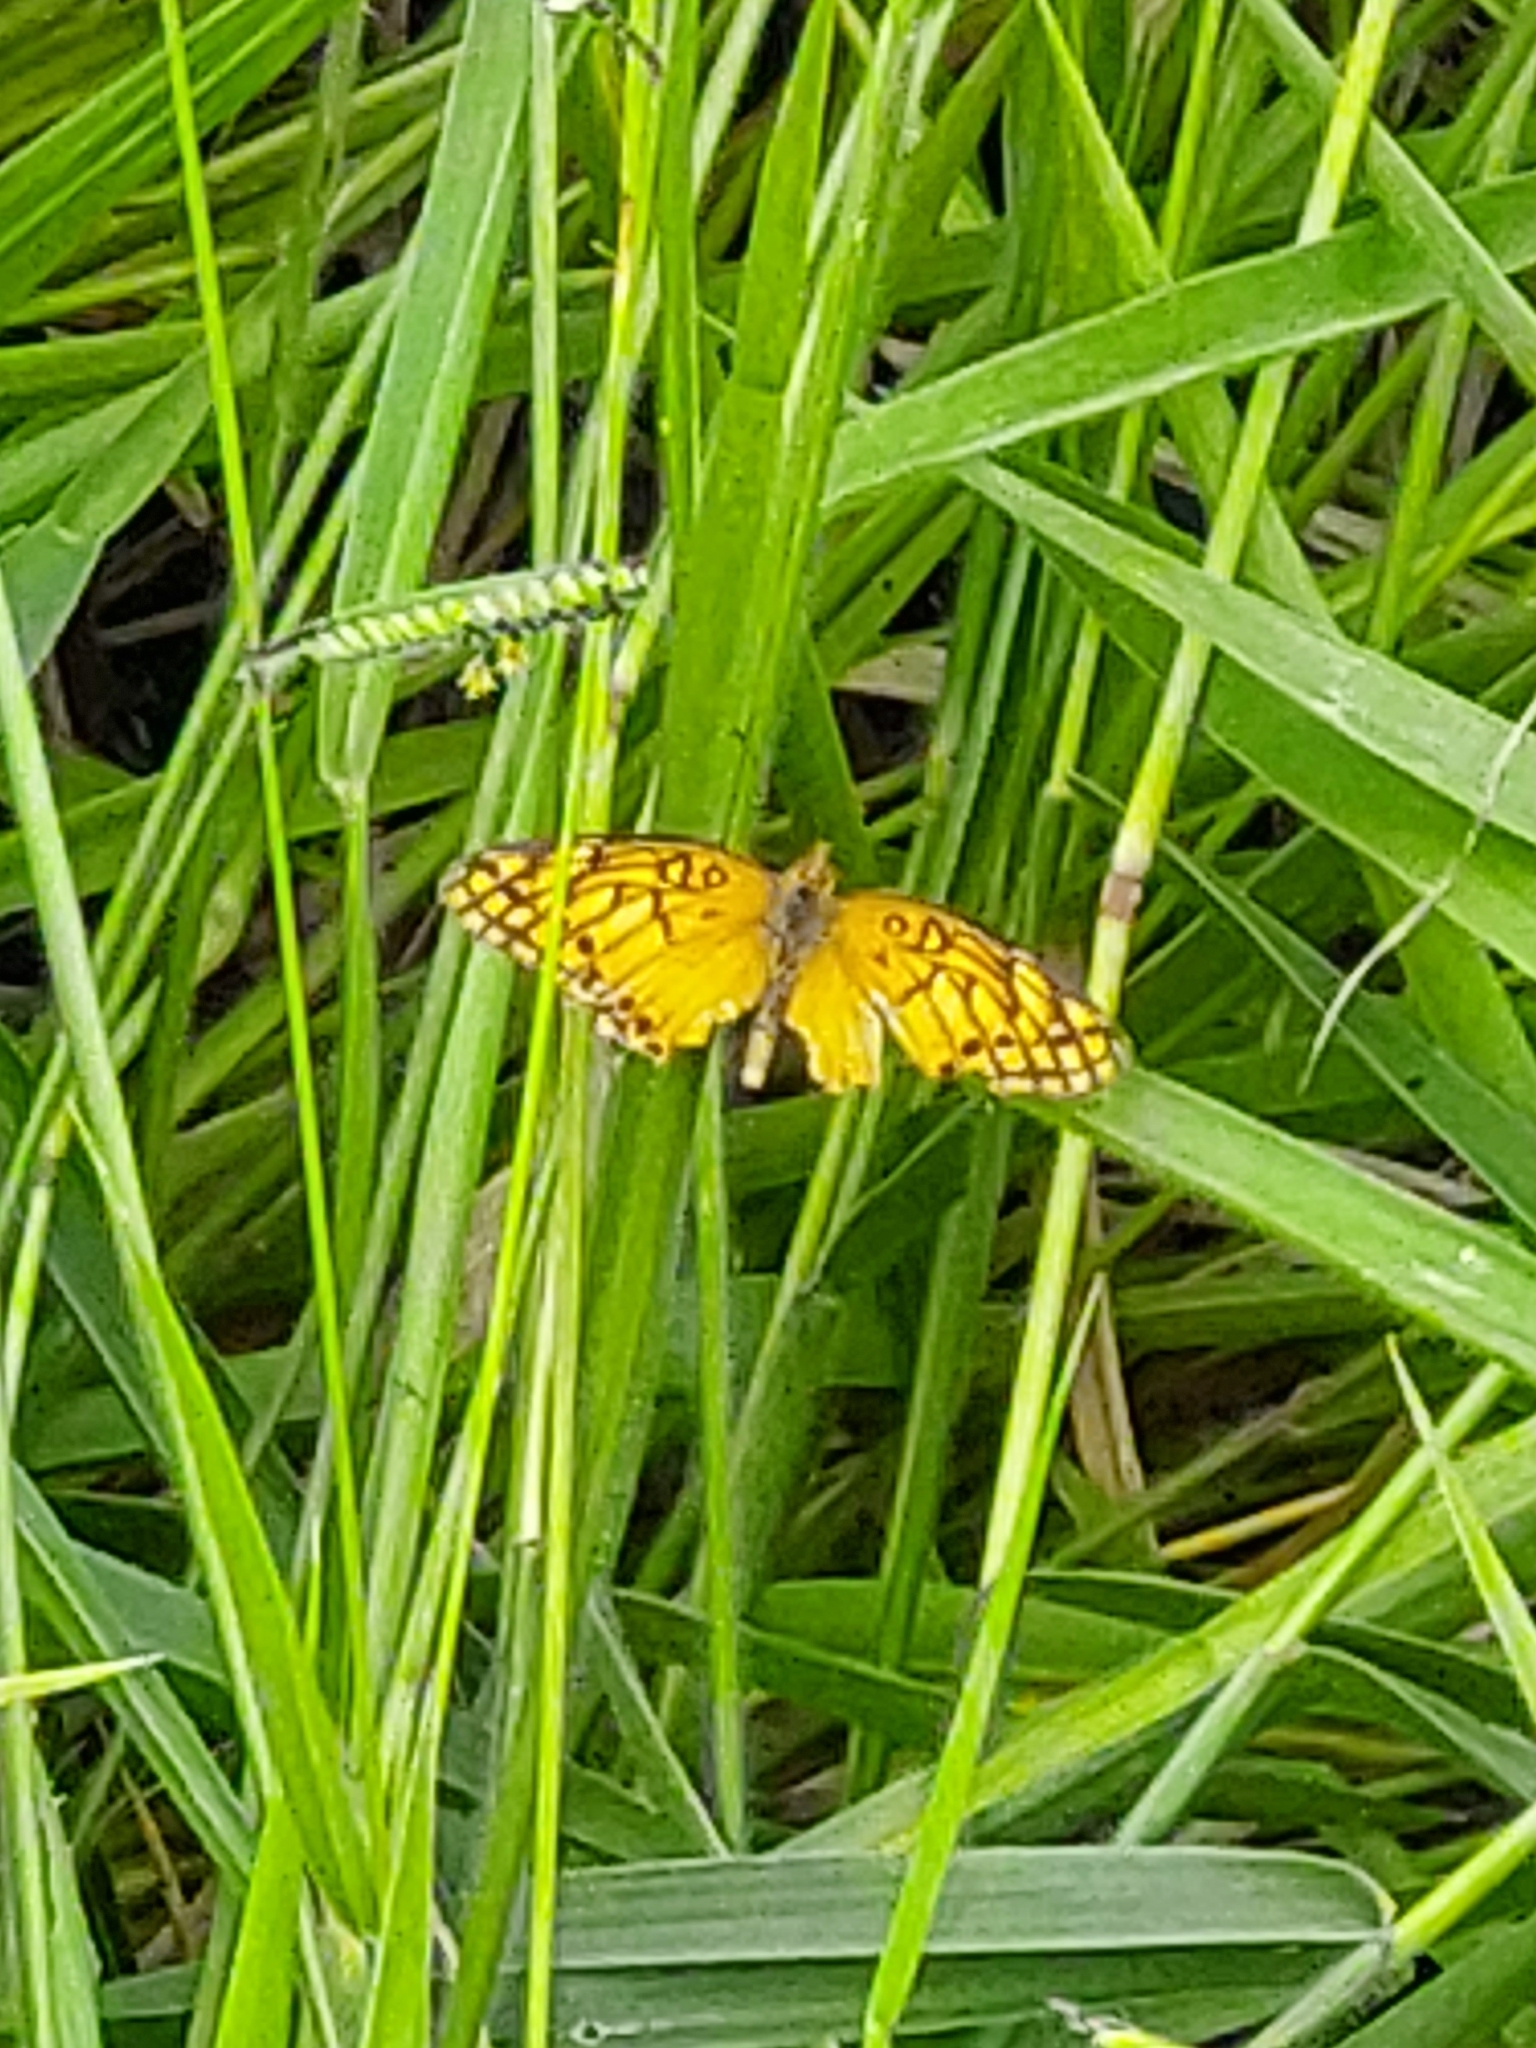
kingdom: Animalia
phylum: Arthropoda
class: Insecta
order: Lepidoptera
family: Nymphalidae
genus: Euptoieta
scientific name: Euptoieta hegesia
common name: Mexican fritillary
